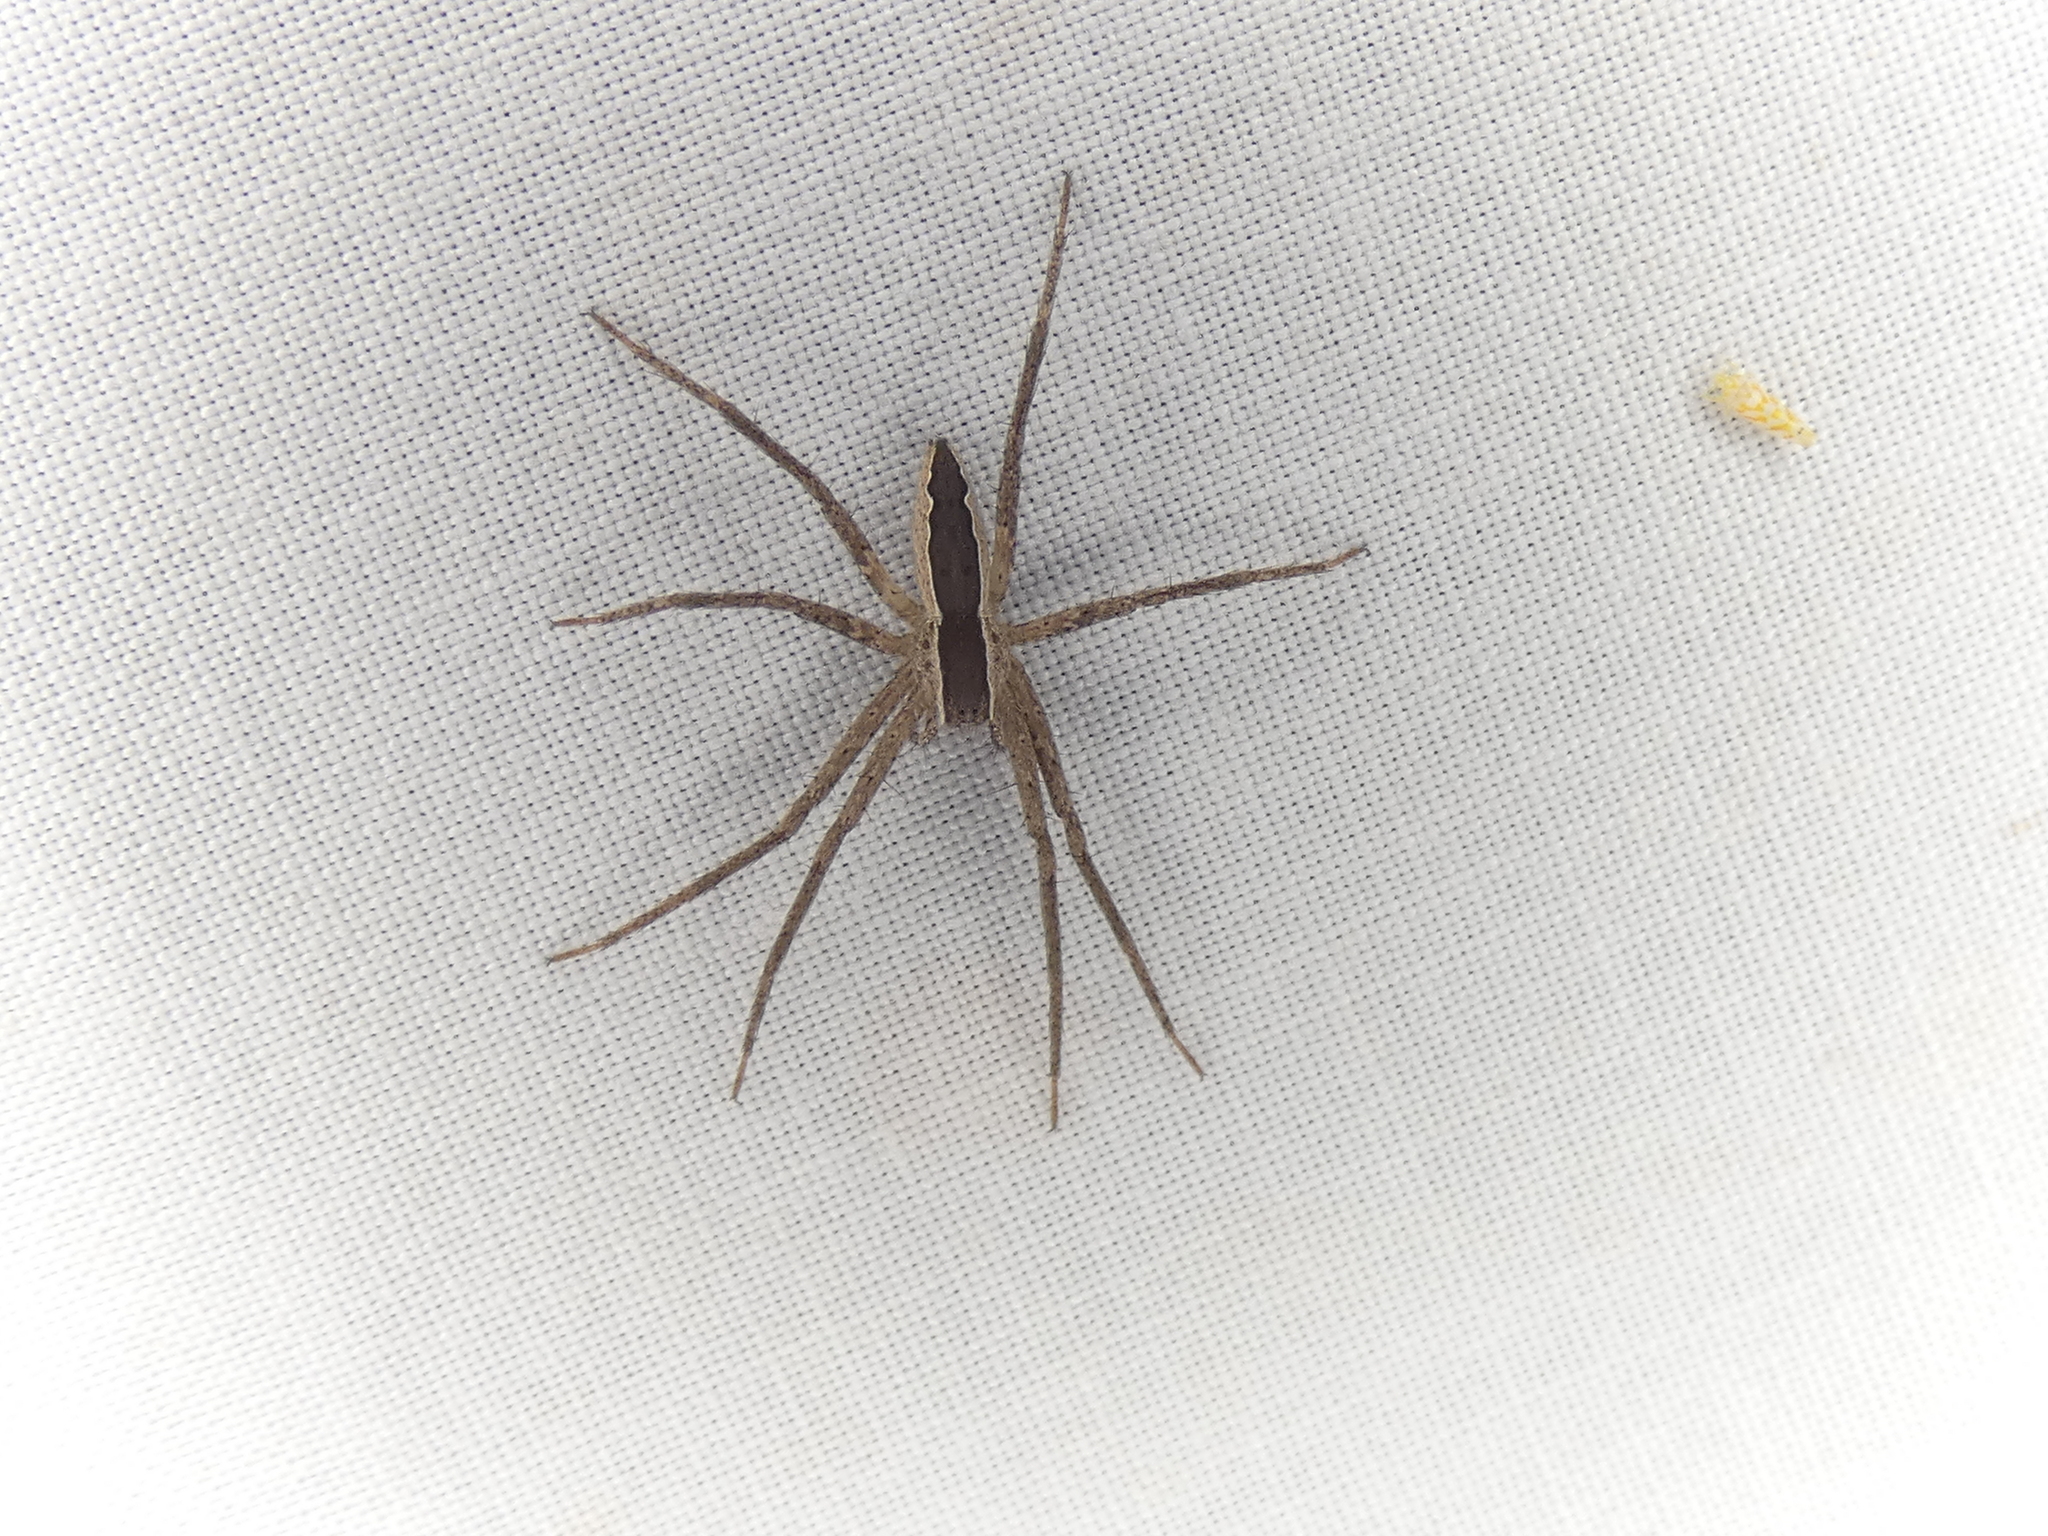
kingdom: Animalia
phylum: Arthropoda
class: Arachnida
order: Araneae
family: Pisauridae
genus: Pisaurina
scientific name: Pisaurina mira
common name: American nursery web spider
